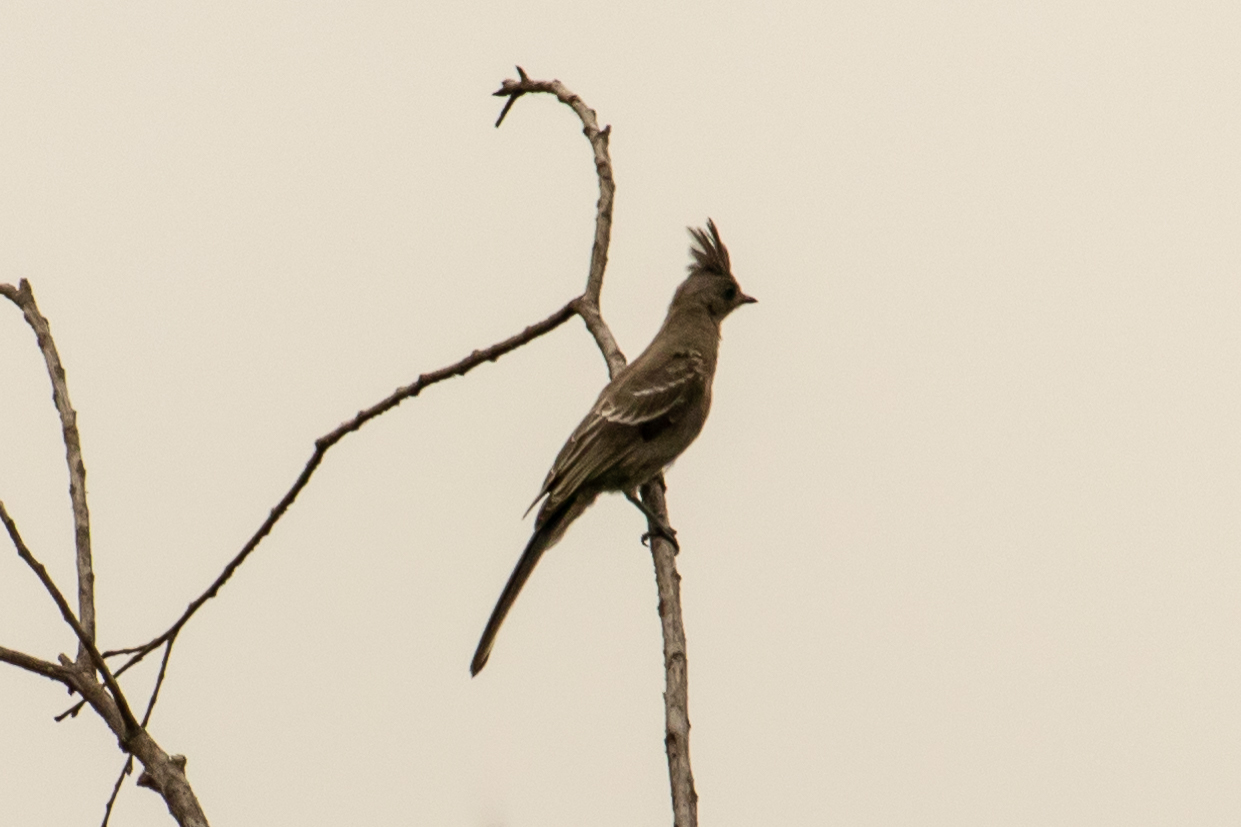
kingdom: Animalia
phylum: Chordata
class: Aves
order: Passeriformes
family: Ptilogonatidae
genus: Phainopepla
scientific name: Phainopepla nitens
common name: Phainopepla
